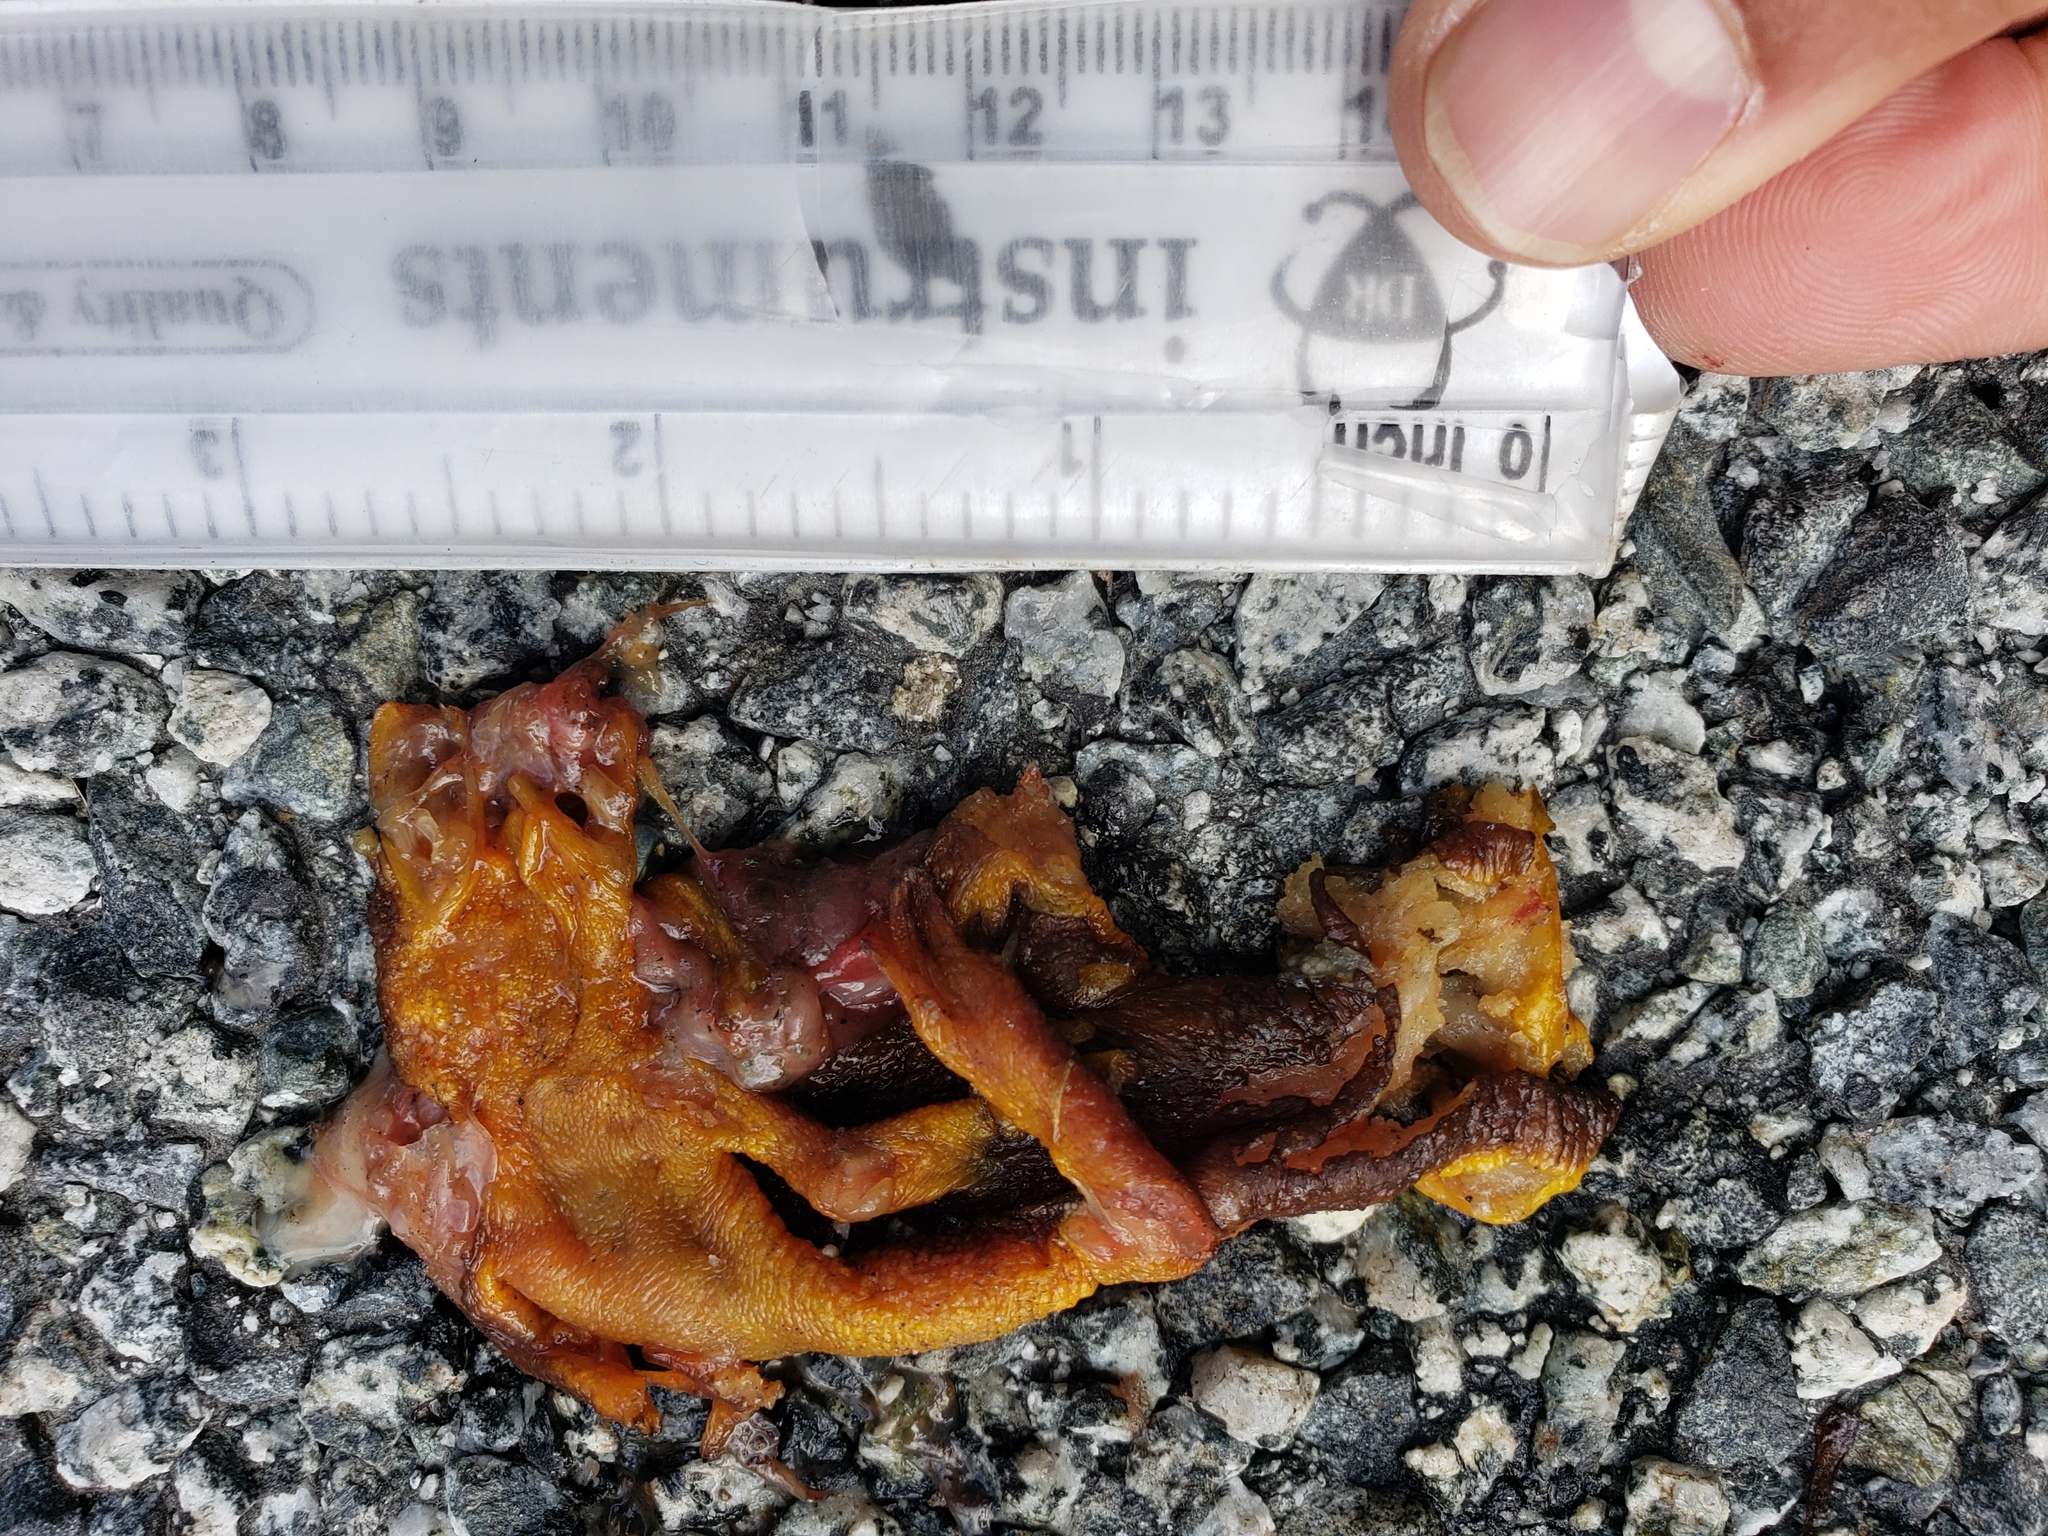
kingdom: Animalia
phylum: Chordata
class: Amphibia
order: Caudata
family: Salamandridae
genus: Taricha
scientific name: Taricha
